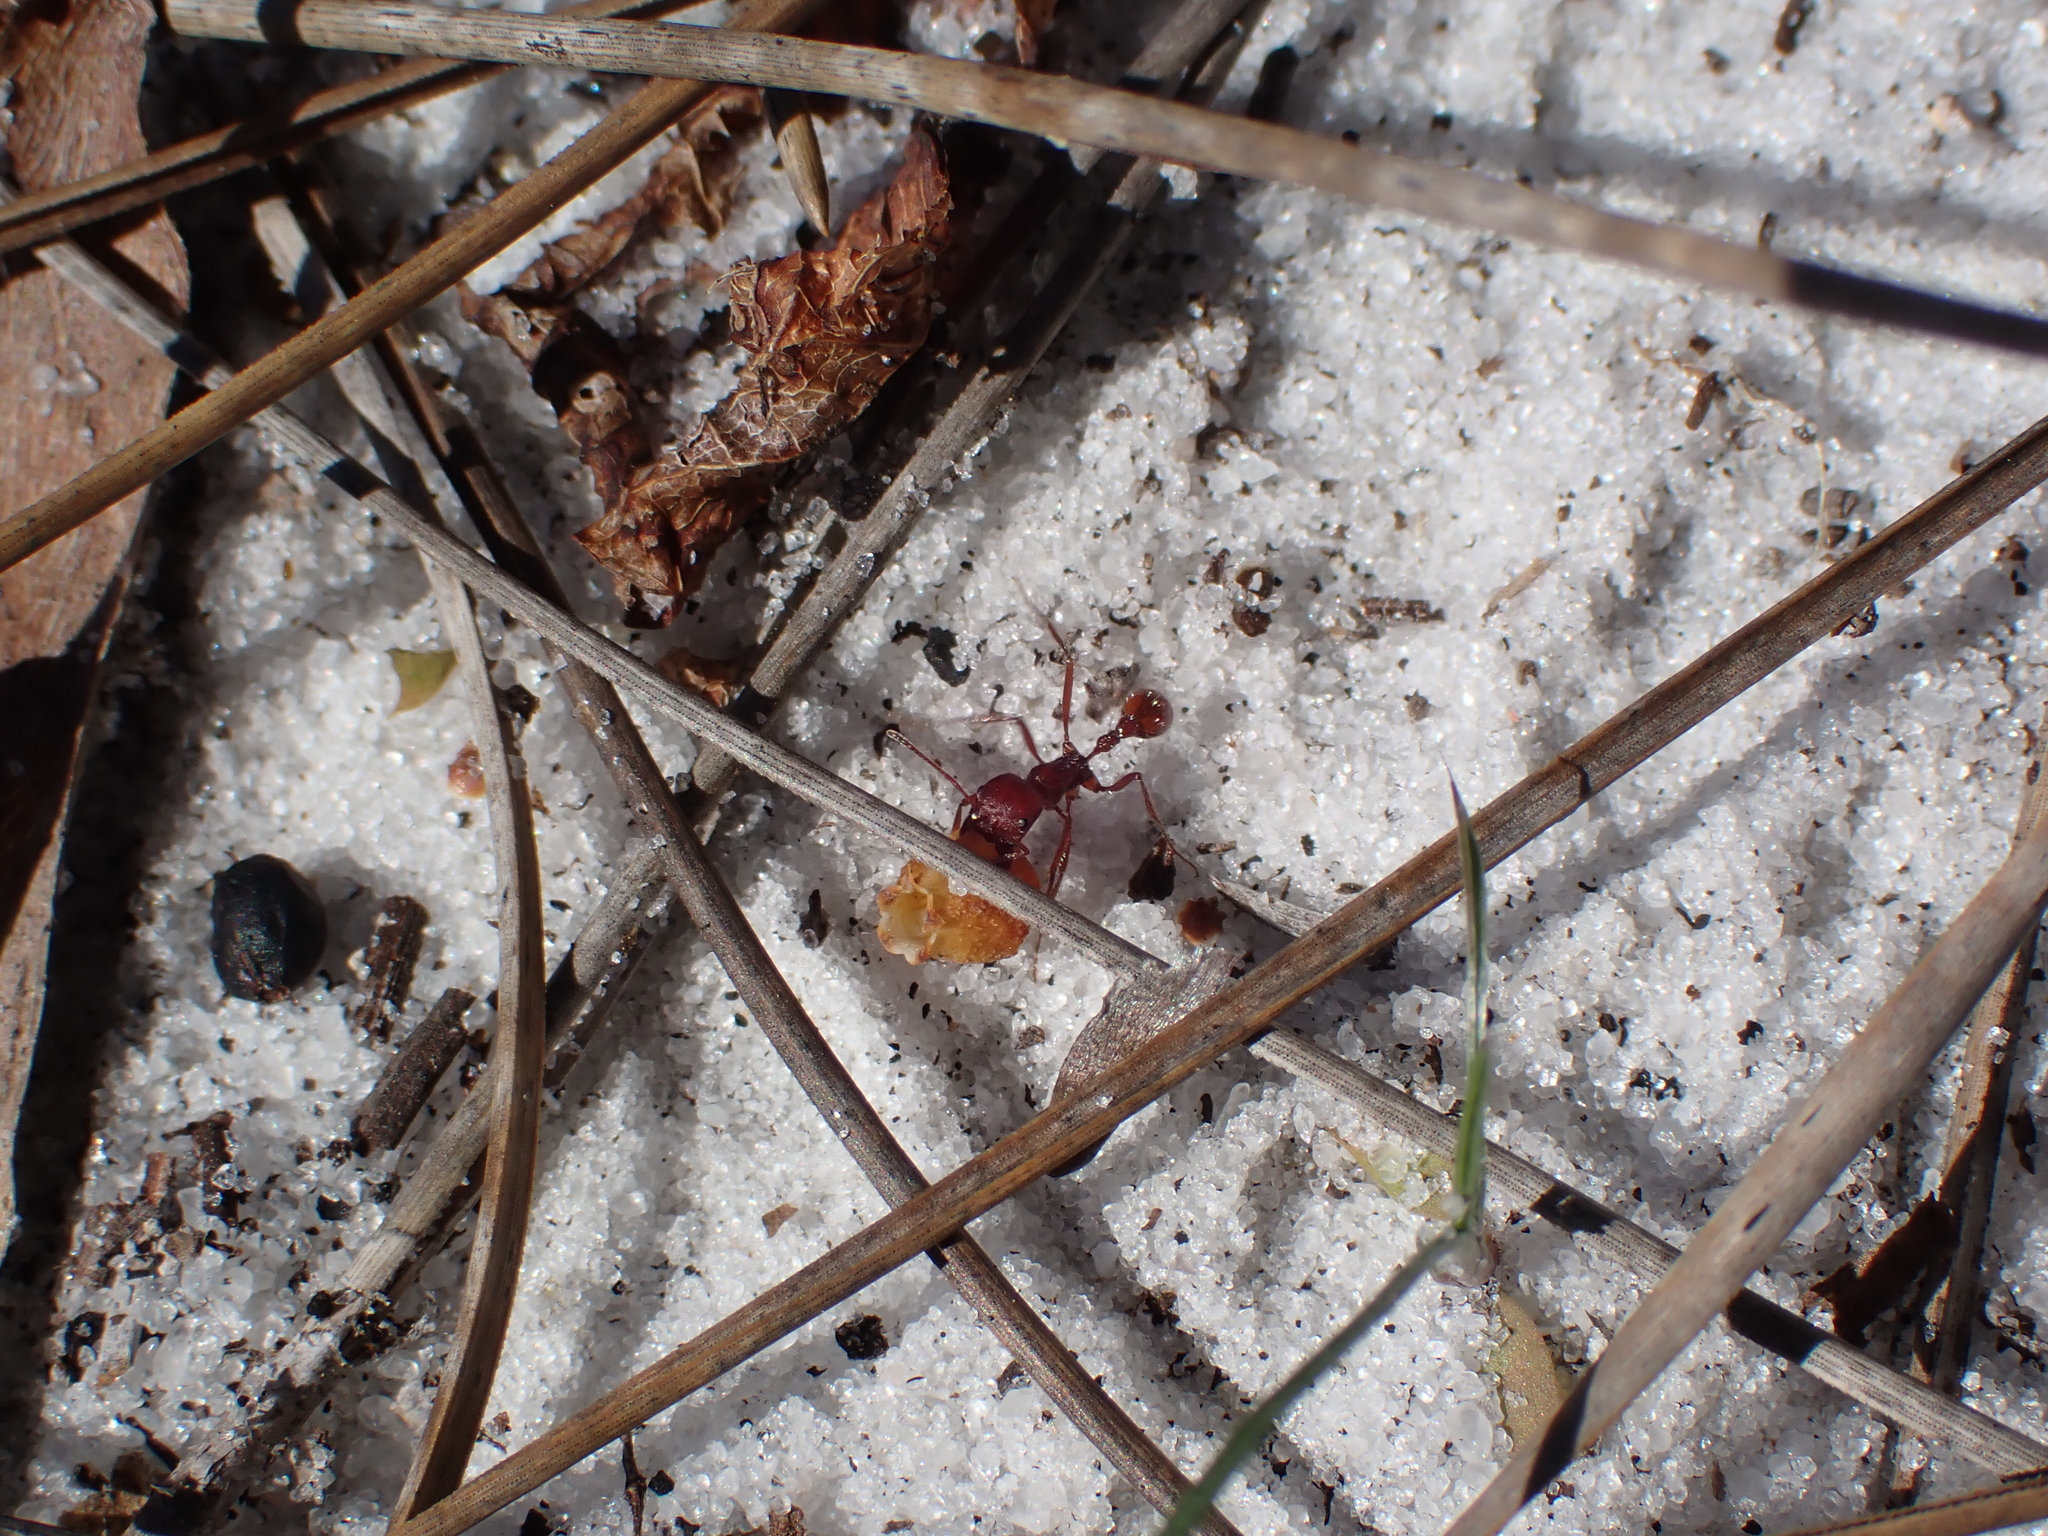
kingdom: Animalia
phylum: Arthropoda
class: Insecta
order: Hymenoptera
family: Formicidae
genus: Pogonomyrmex
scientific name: Pogonomyrmex badius
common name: Florida harvester ant
